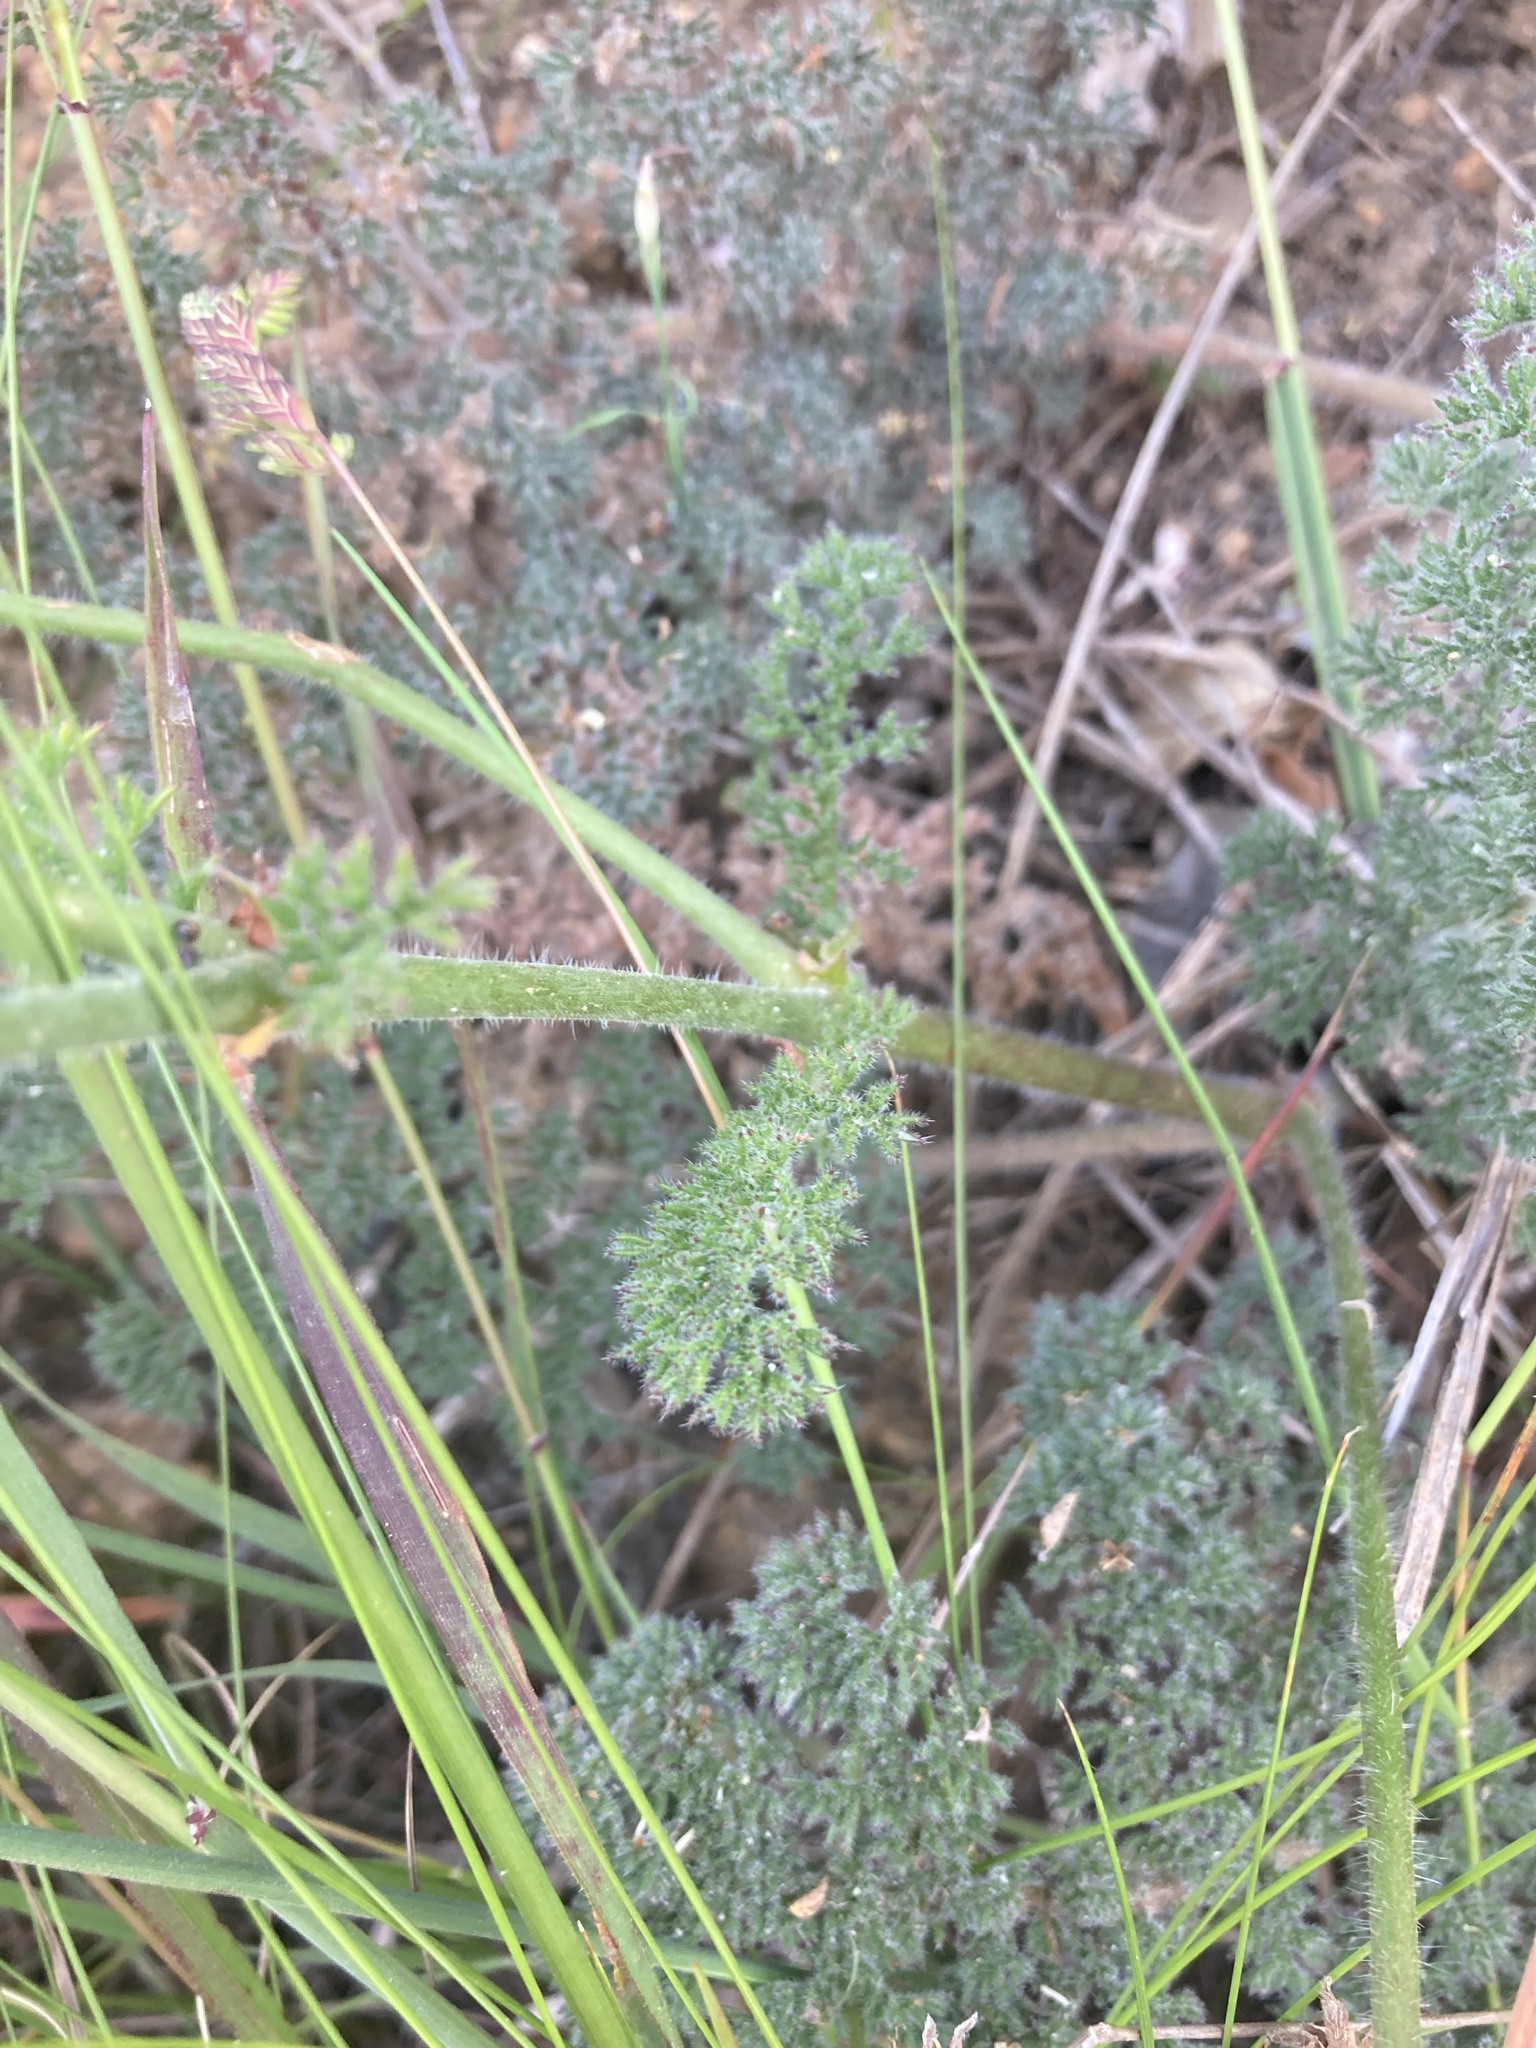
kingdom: Plantae
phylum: Tracheophyta
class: Magnoliopsida
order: Geraniales
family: Geraniaceae
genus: Pelargonium
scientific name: Pelargonium triste
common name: Night-scent pelargonium
